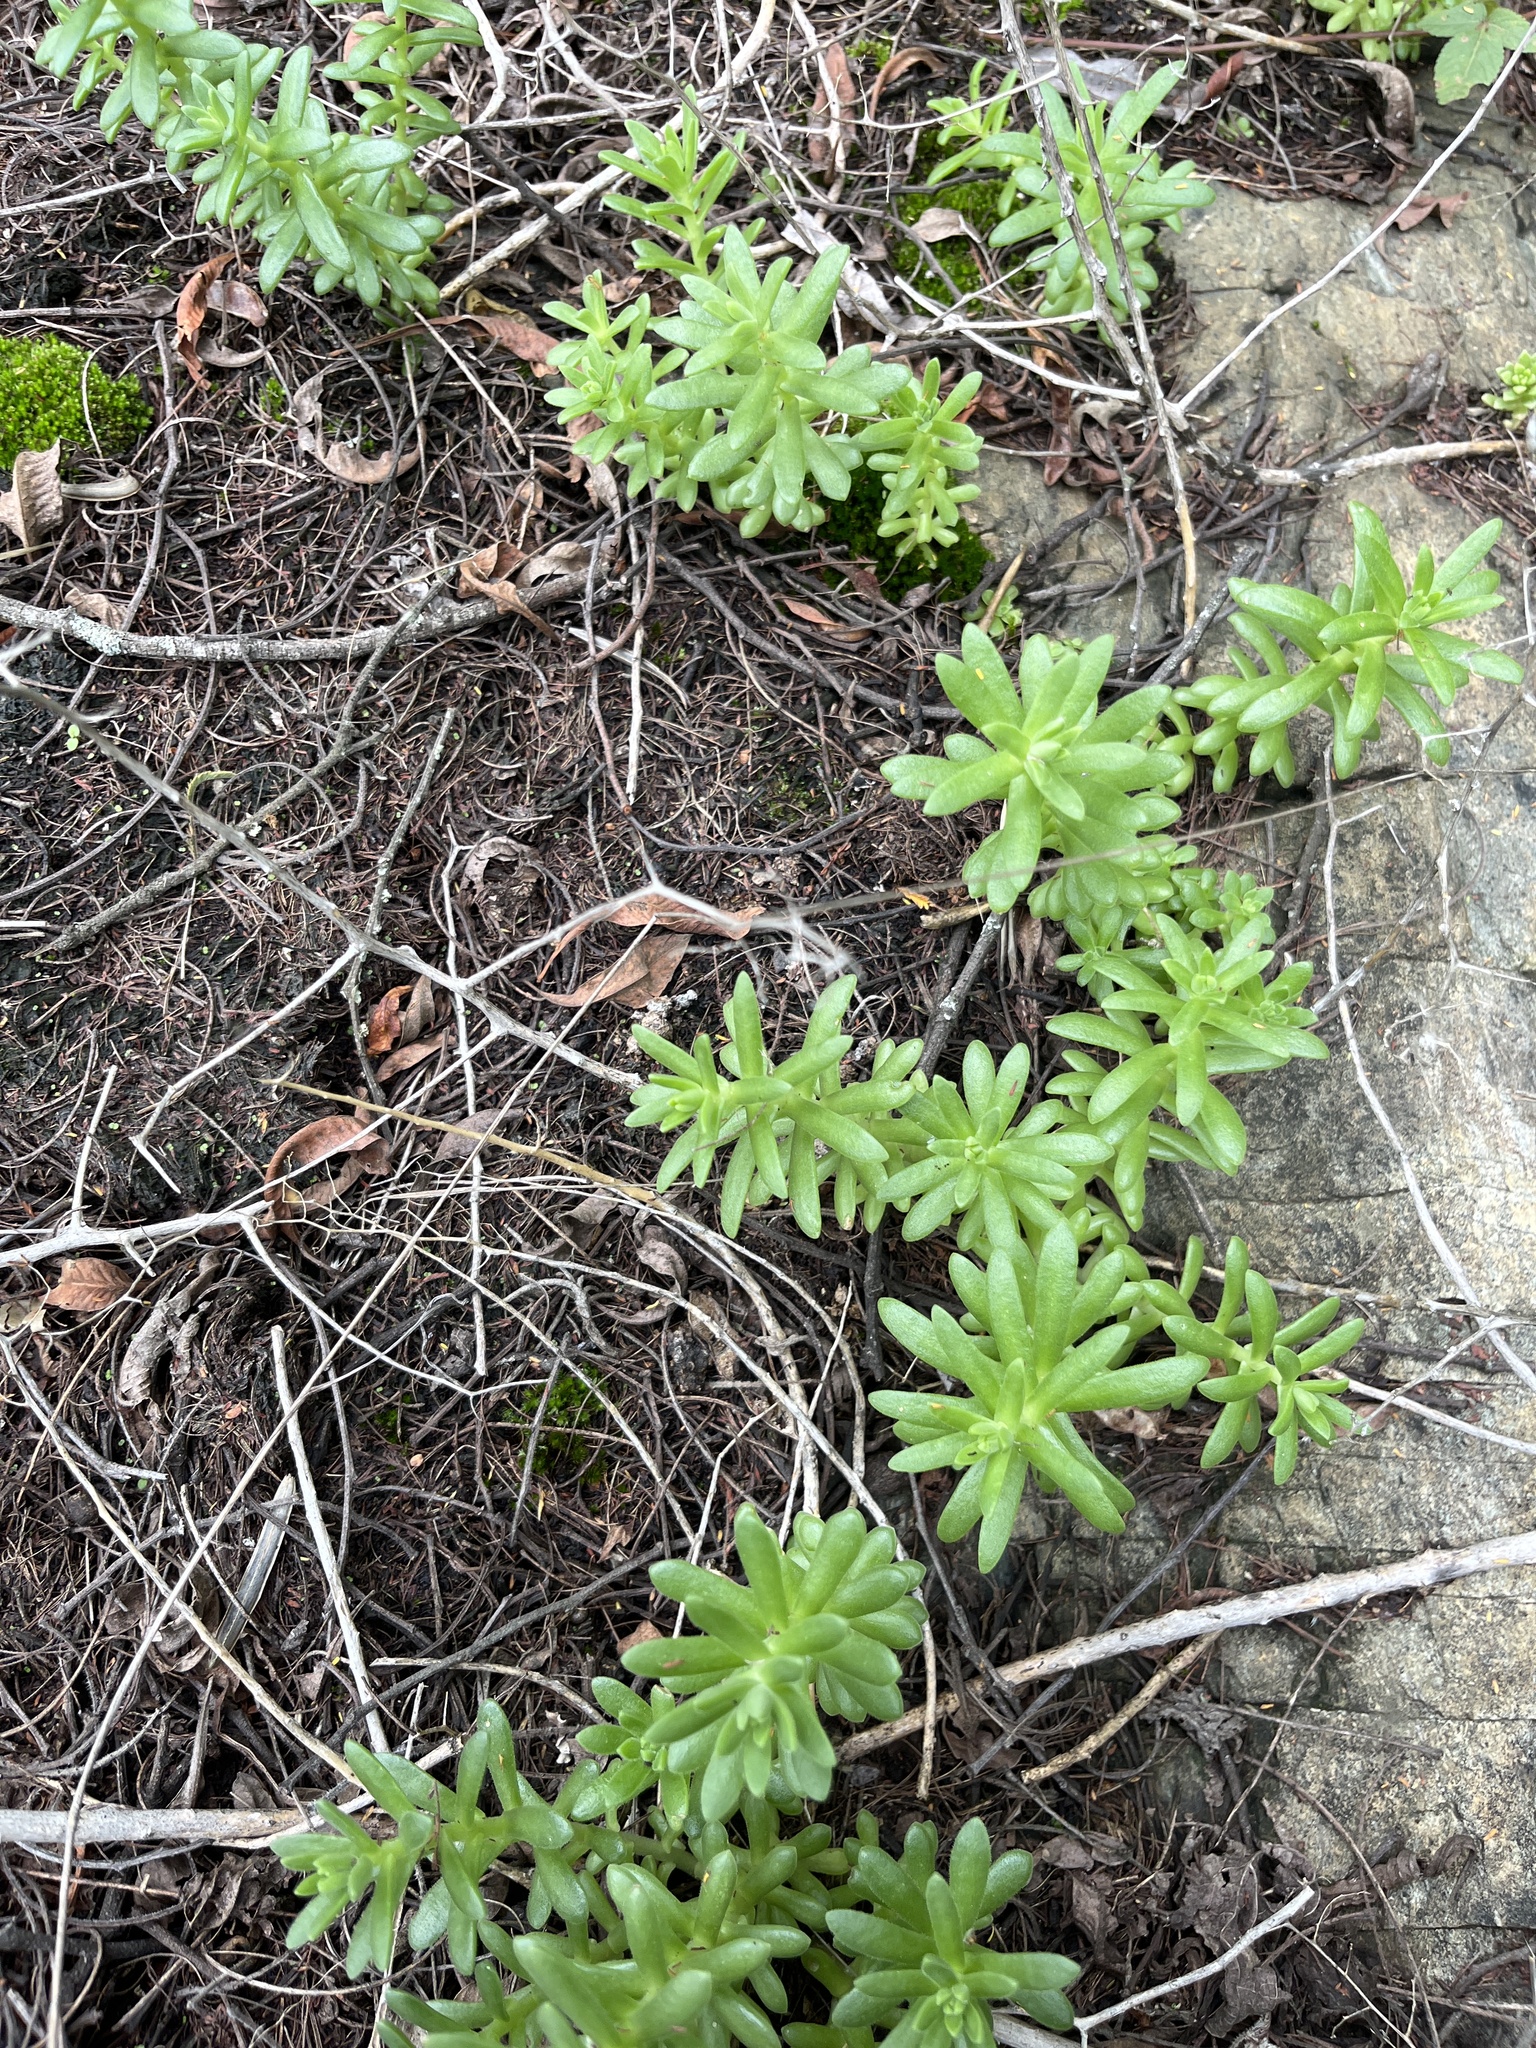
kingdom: Plantae
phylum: Tracheophyta
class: Magnoliopsida
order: Saxifragales
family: Crassulaceae
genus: Sedum
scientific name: Sedum hemsleyanum
